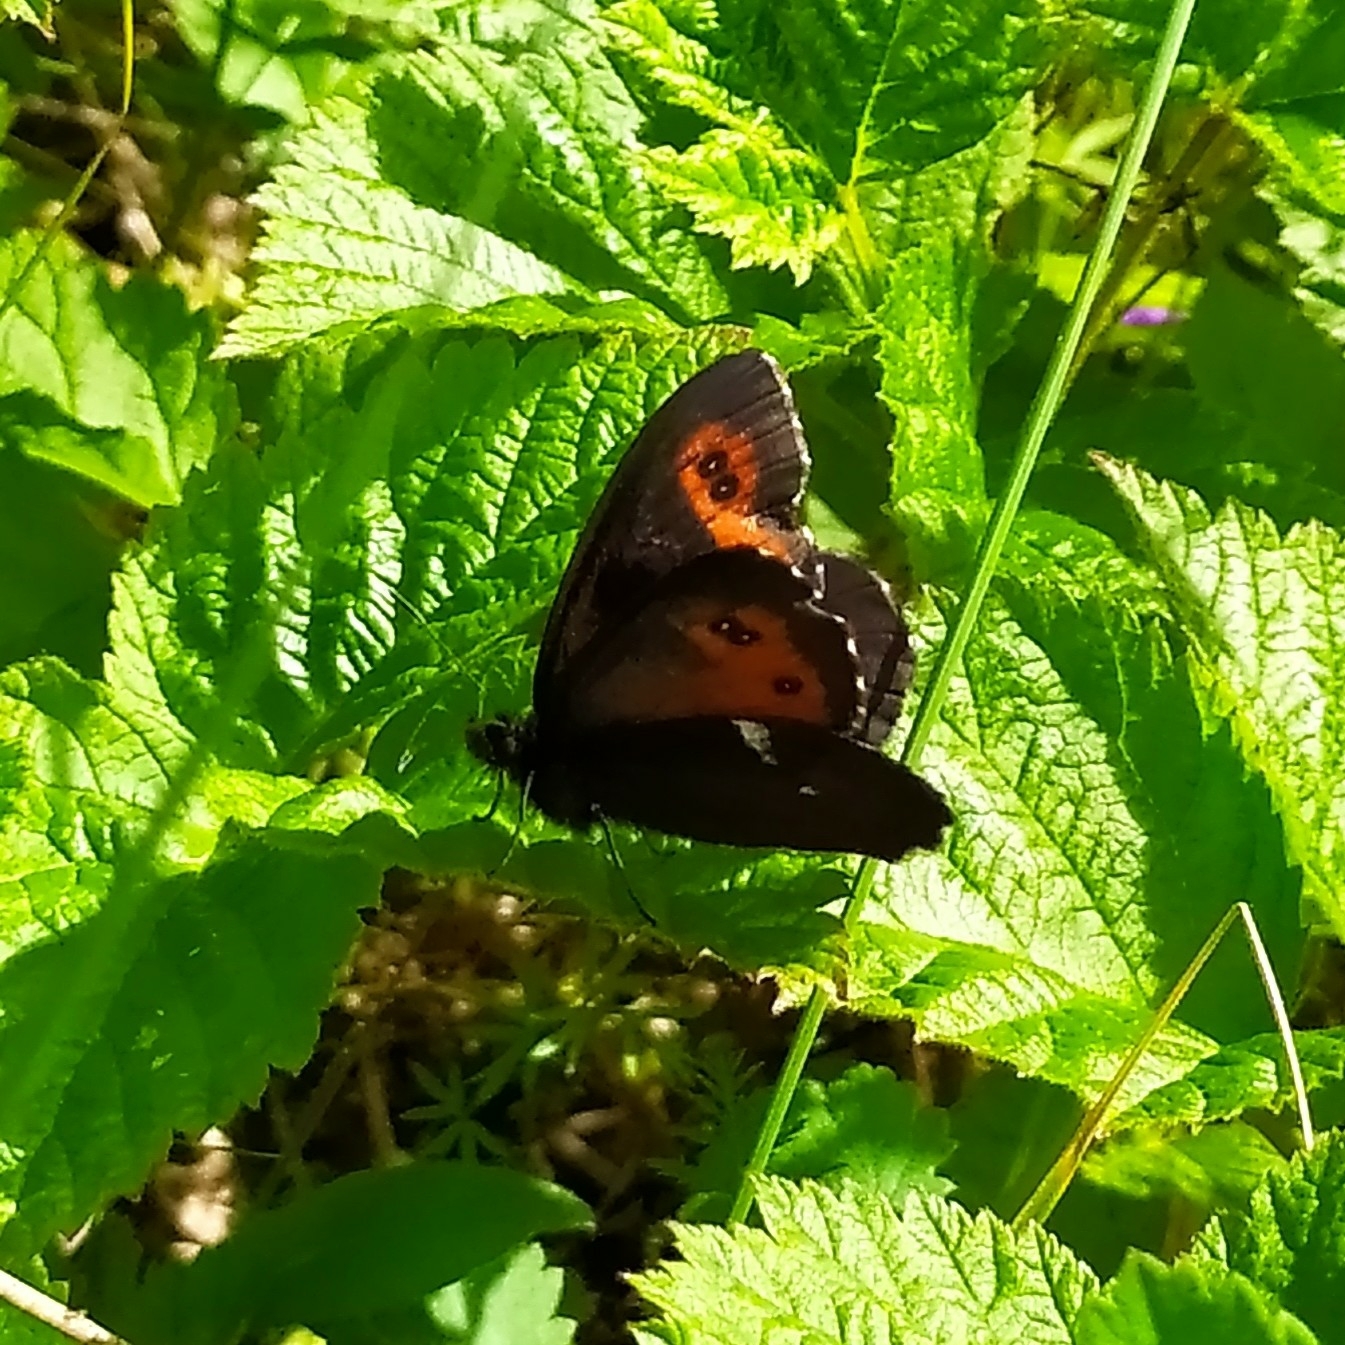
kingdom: Animalia
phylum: Arthropoda
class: Insecta
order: Lepidoptera
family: Nymphalidae
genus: Erebia
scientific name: Erebia ligea
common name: Arran brown
